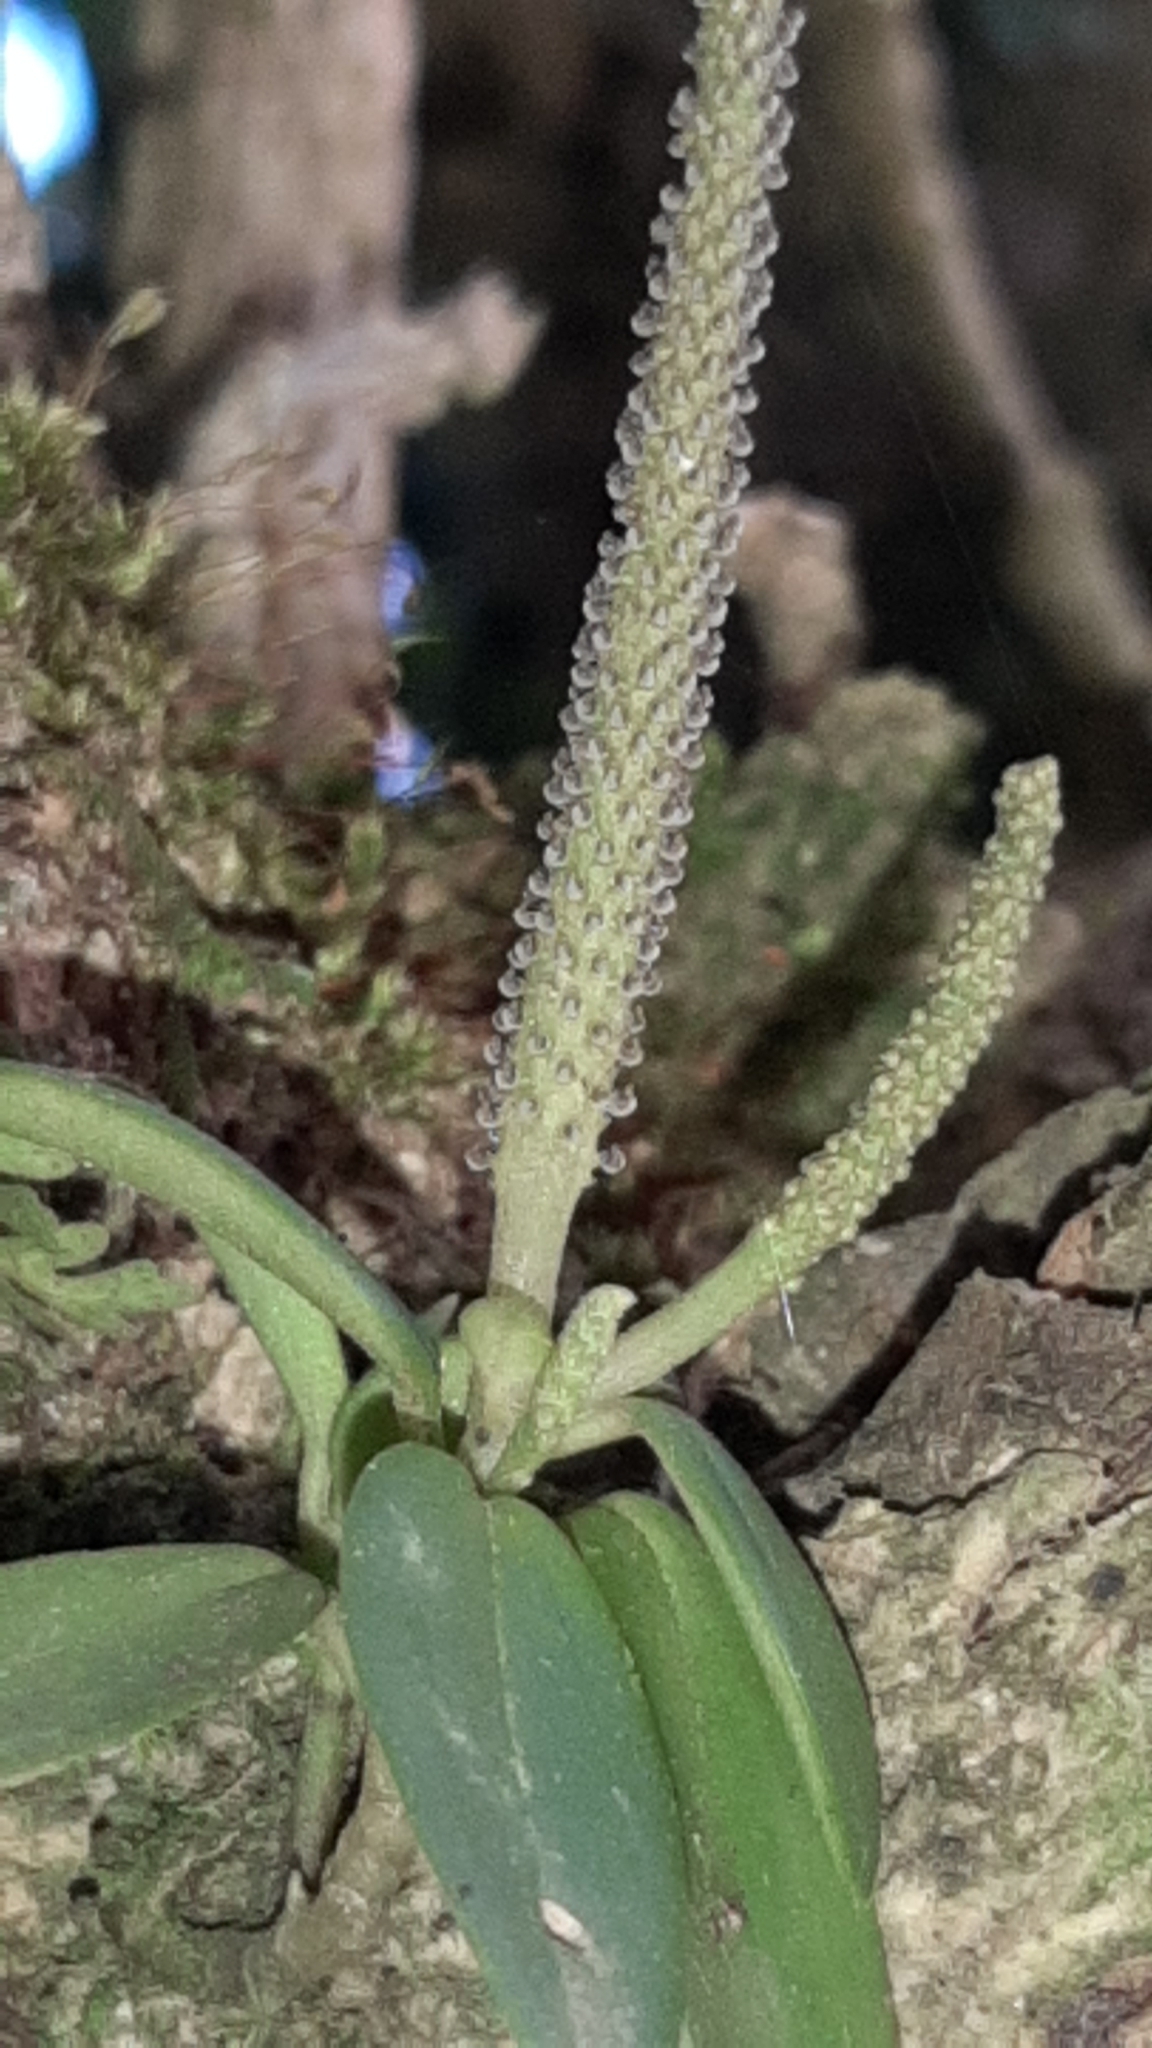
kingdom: Plantae
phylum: Tracheophyta
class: Magnoliopsida
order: Piperales
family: Piperaceae
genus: Peperomia
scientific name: Peperomia san-joseana
